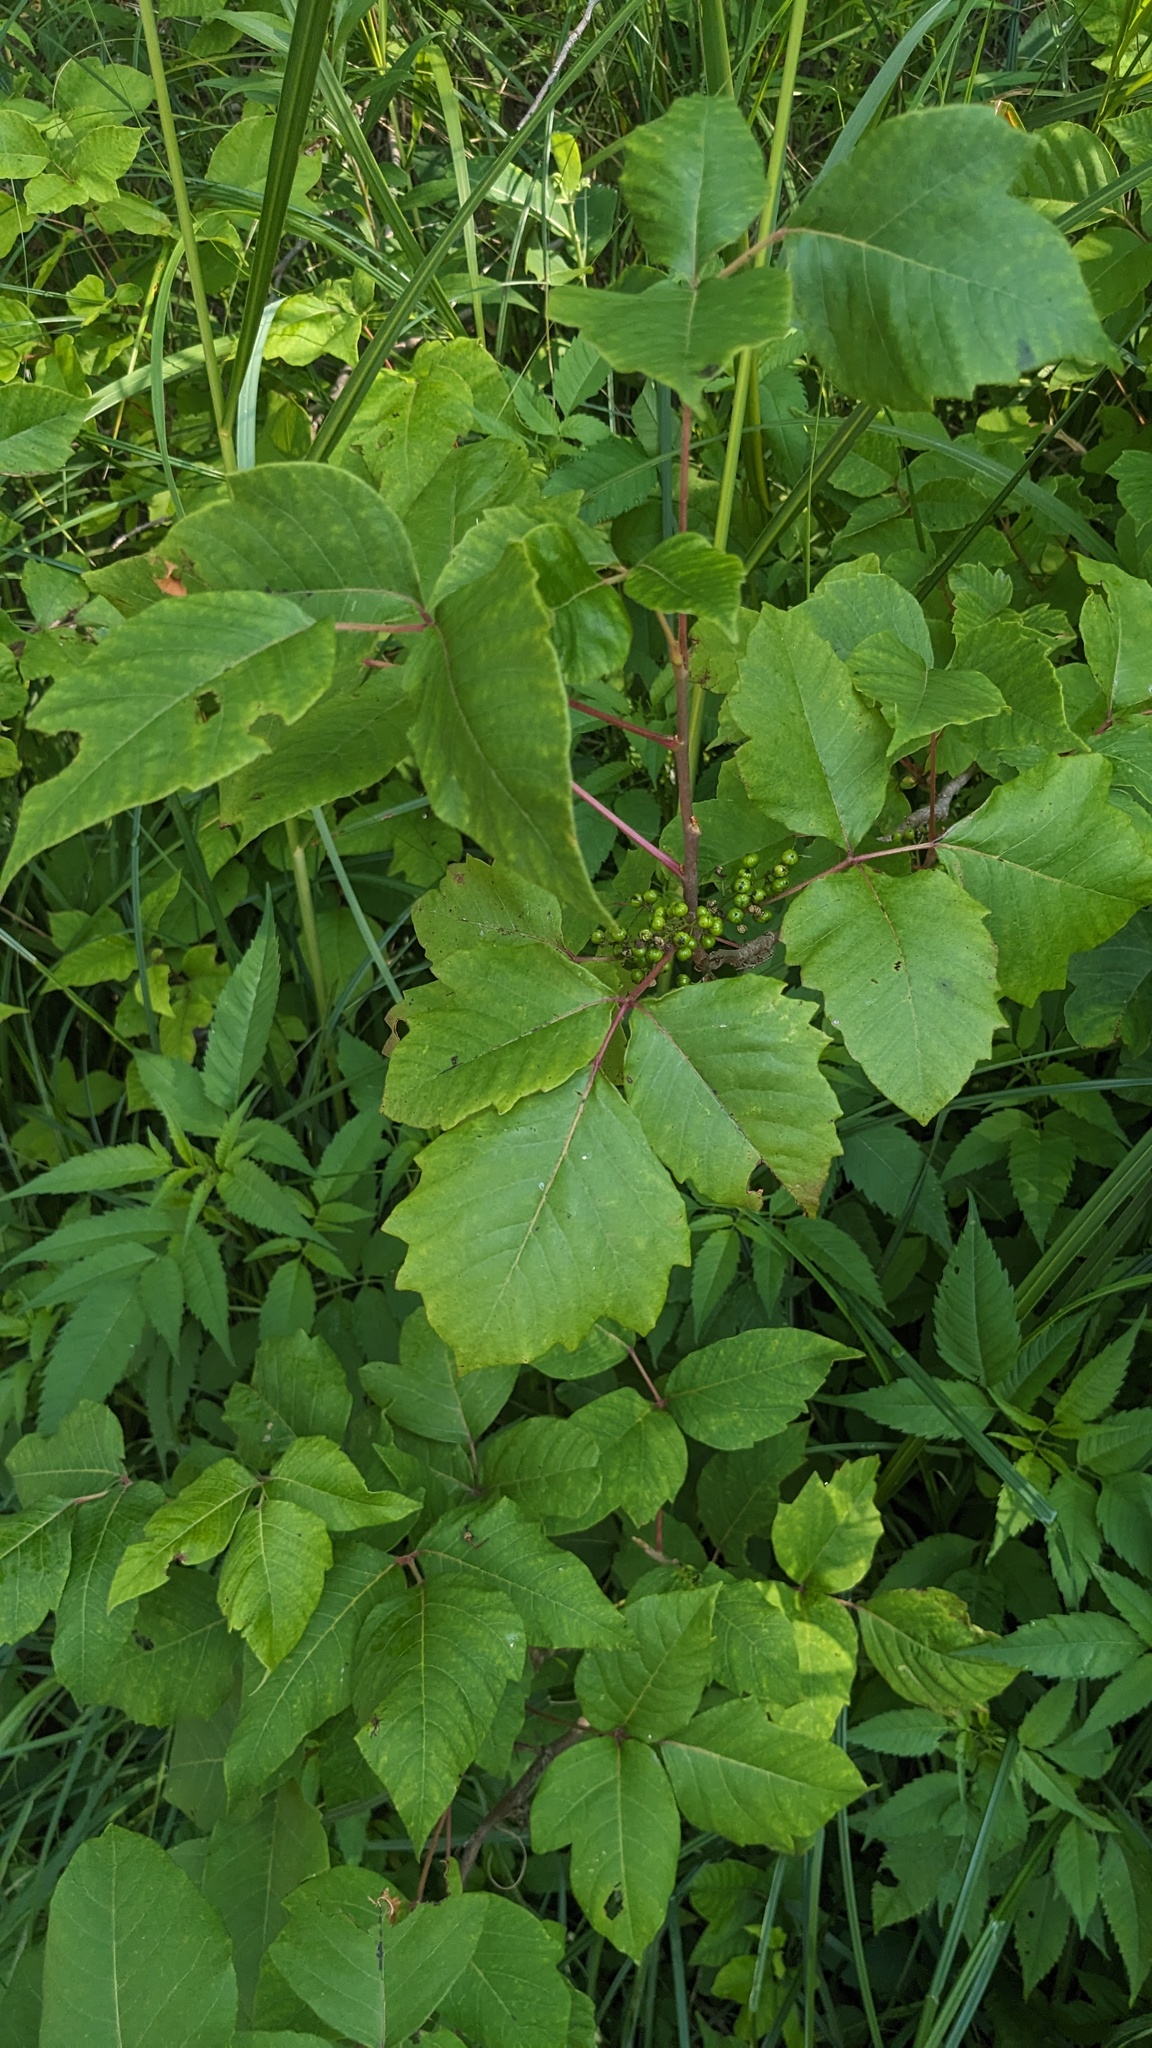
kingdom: Plantae
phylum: Tracheophyta
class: Magnoliopsida
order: Sapindales
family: Anacardiaceae
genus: Toxicodendron
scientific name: Toxicodendron radicans
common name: Poison ivy
